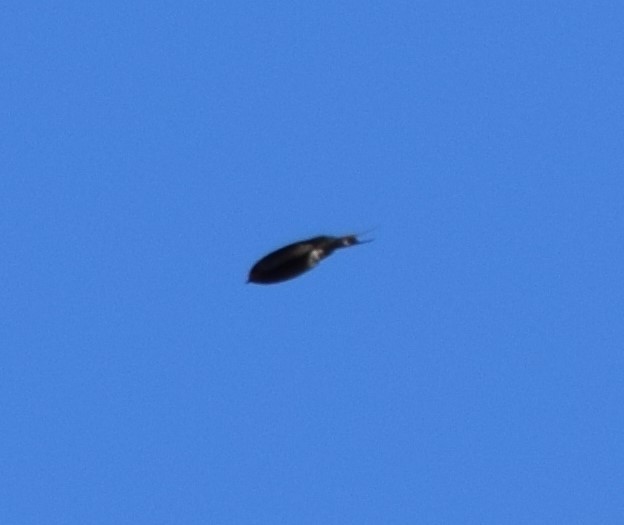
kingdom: Animalia
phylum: Chordata
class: Aves
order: Passeriformes
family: Hirundinidae
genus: Hirundo
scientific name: Hirundo neoxena
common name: Welcome swallow
